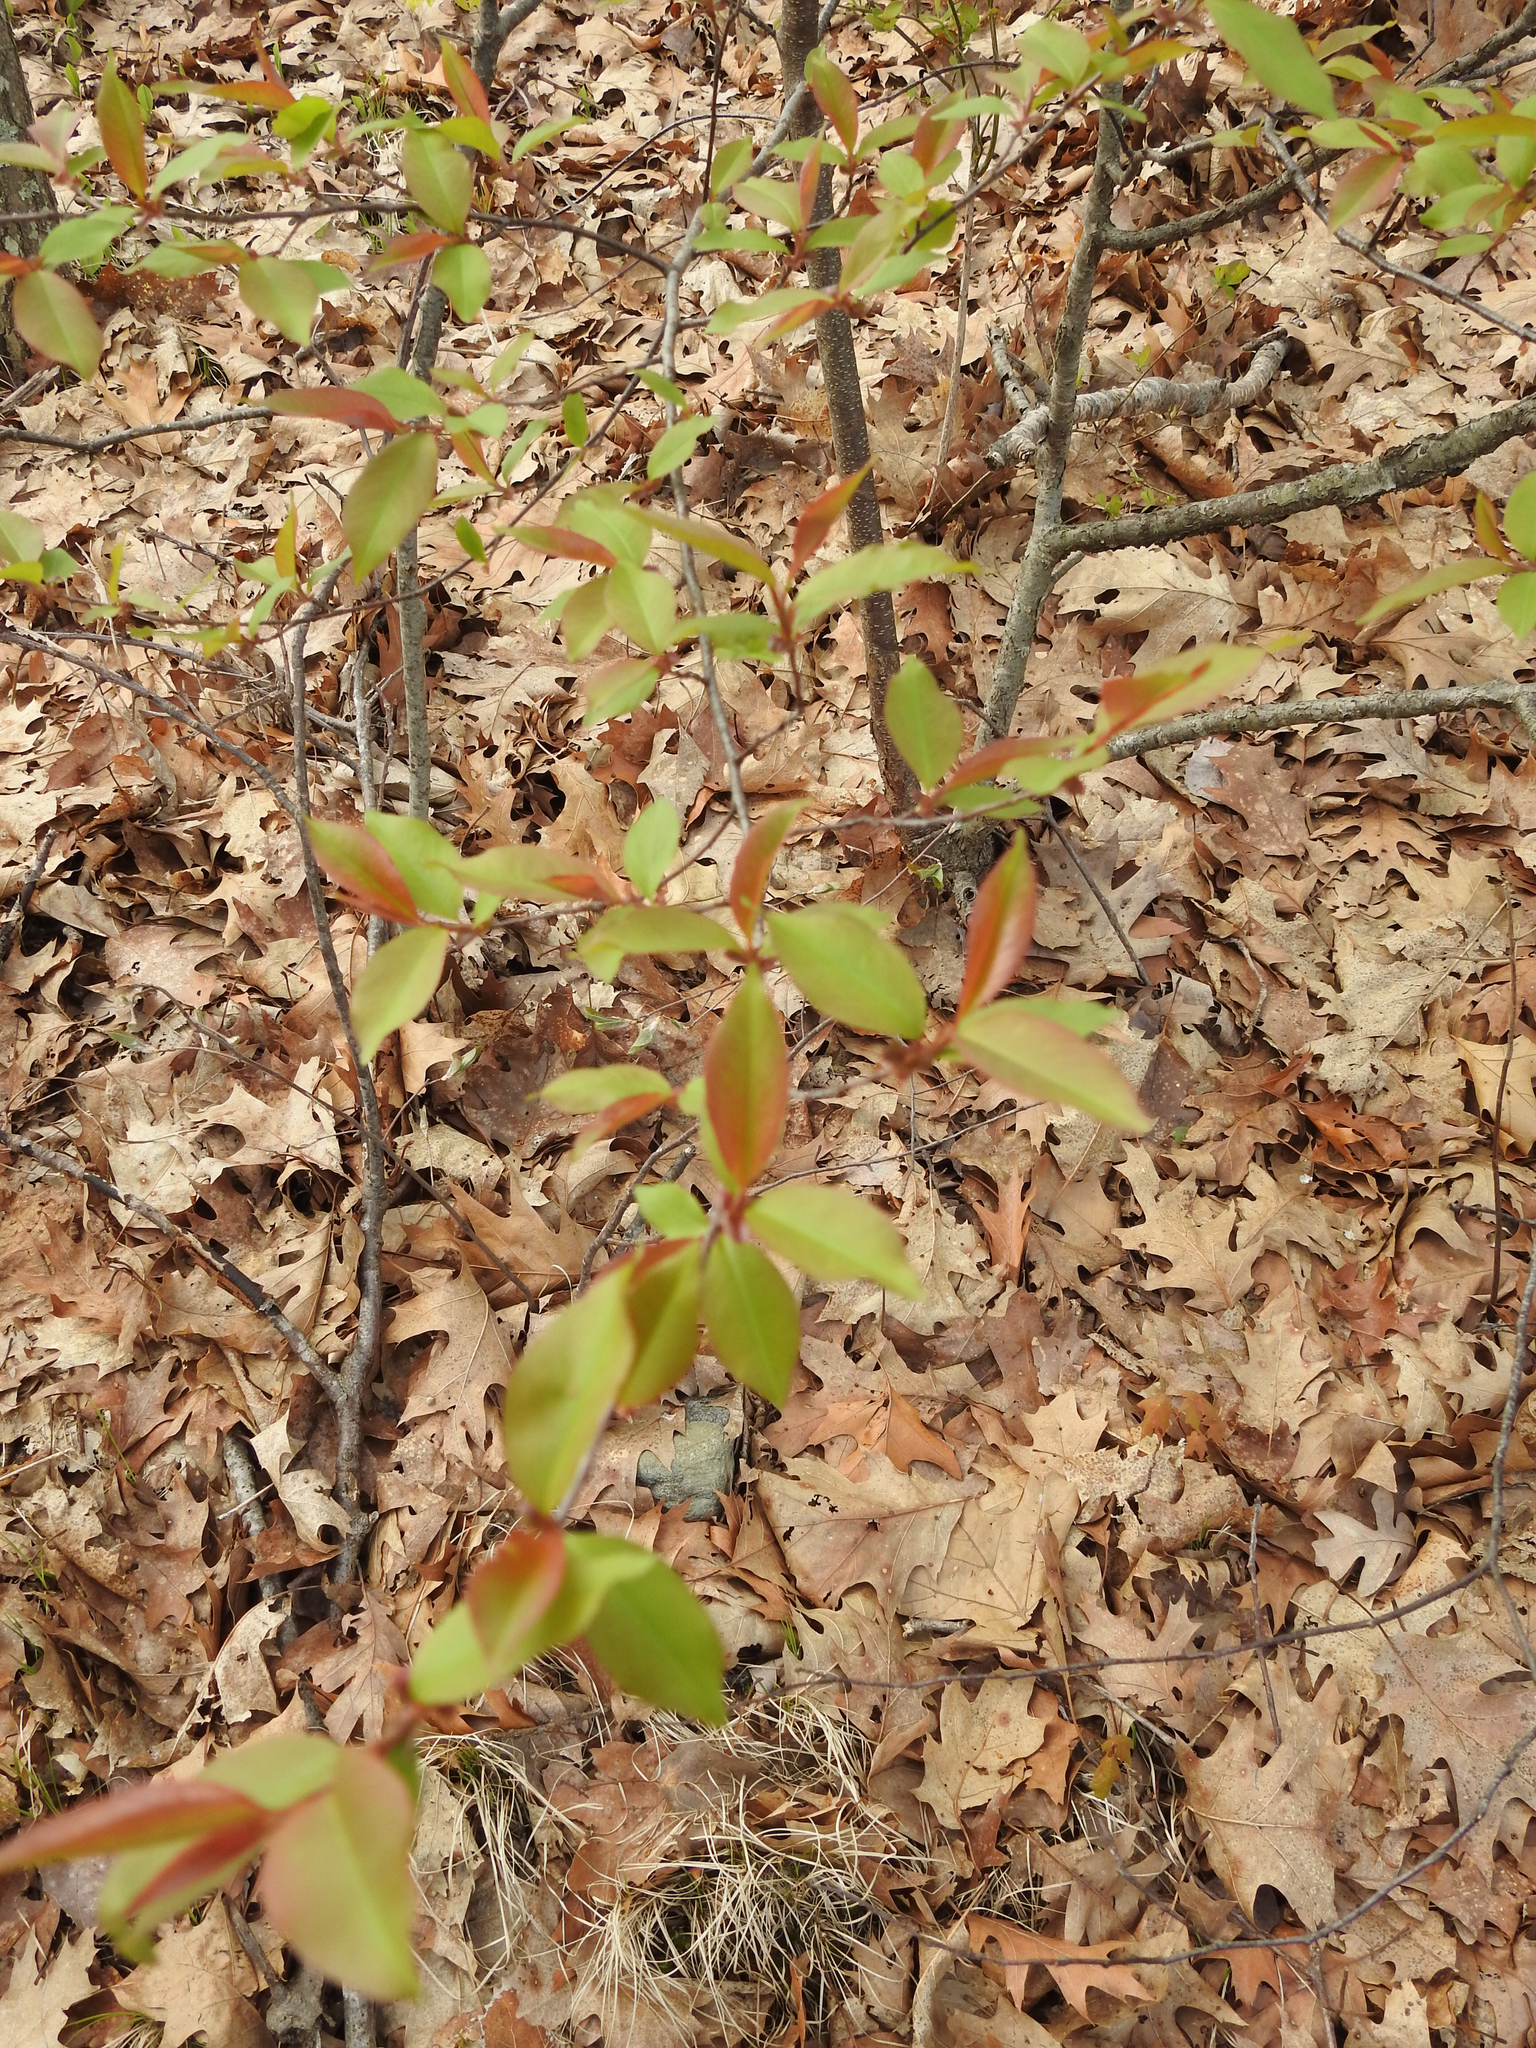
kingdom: Plantae
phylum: Tracheophyta
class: Magnoliopsida
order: Rosales
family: Rosaceae
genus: Prunus
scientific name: Prunus serotina
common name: Black cherry
